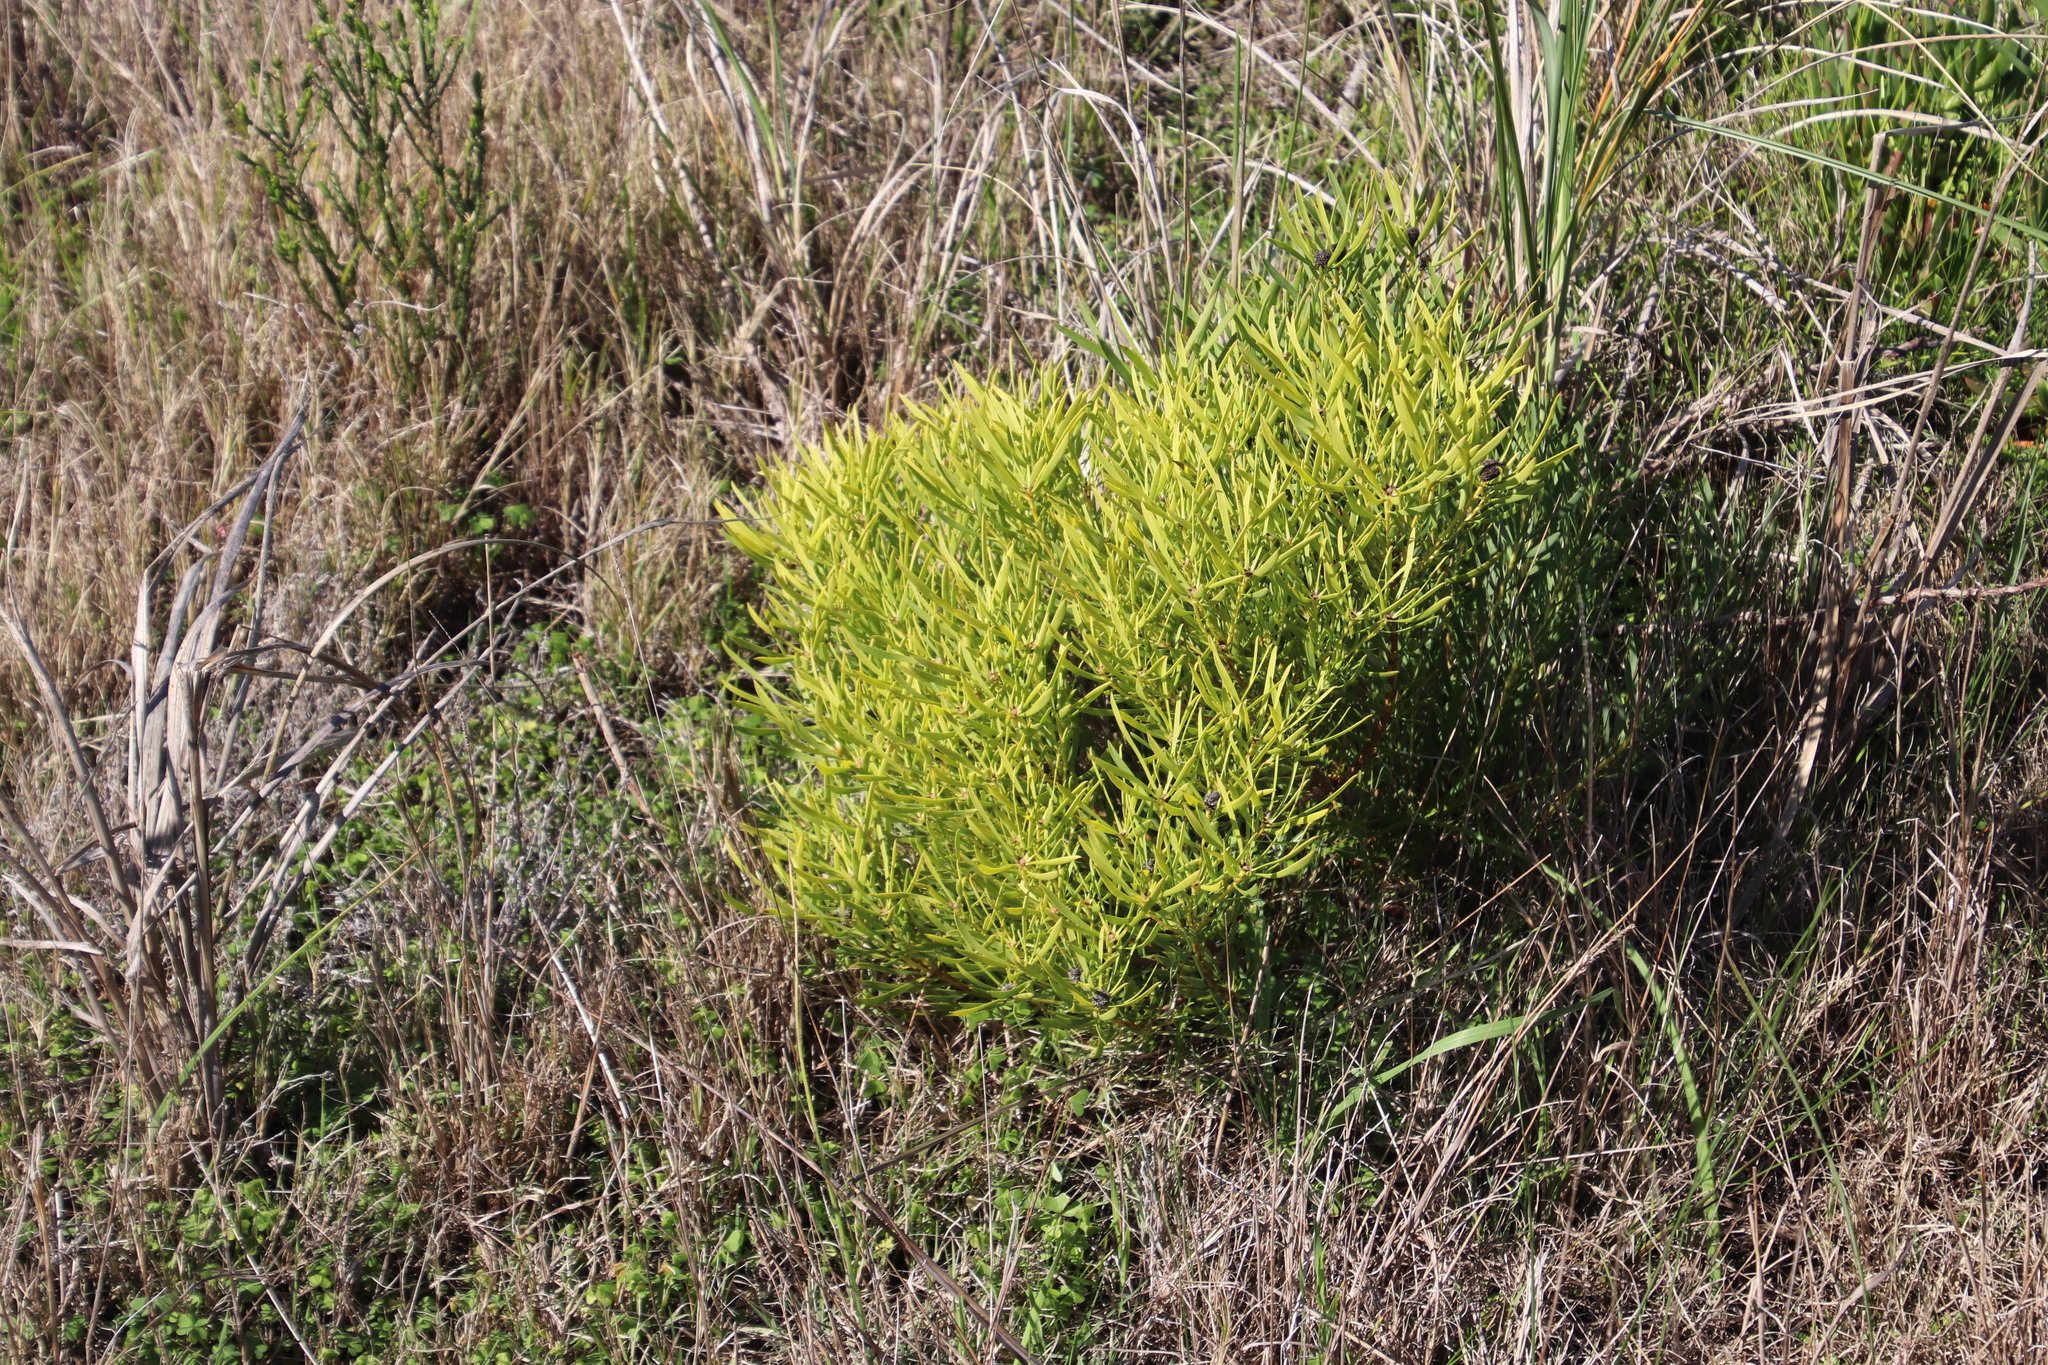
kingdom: Plantae
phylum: Tracheophyta
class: Magnoliopsida
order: Proteales
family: Proteaceae
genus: Leucadendron
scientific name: Leucadendron salignum
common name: Common sunshine conebush
